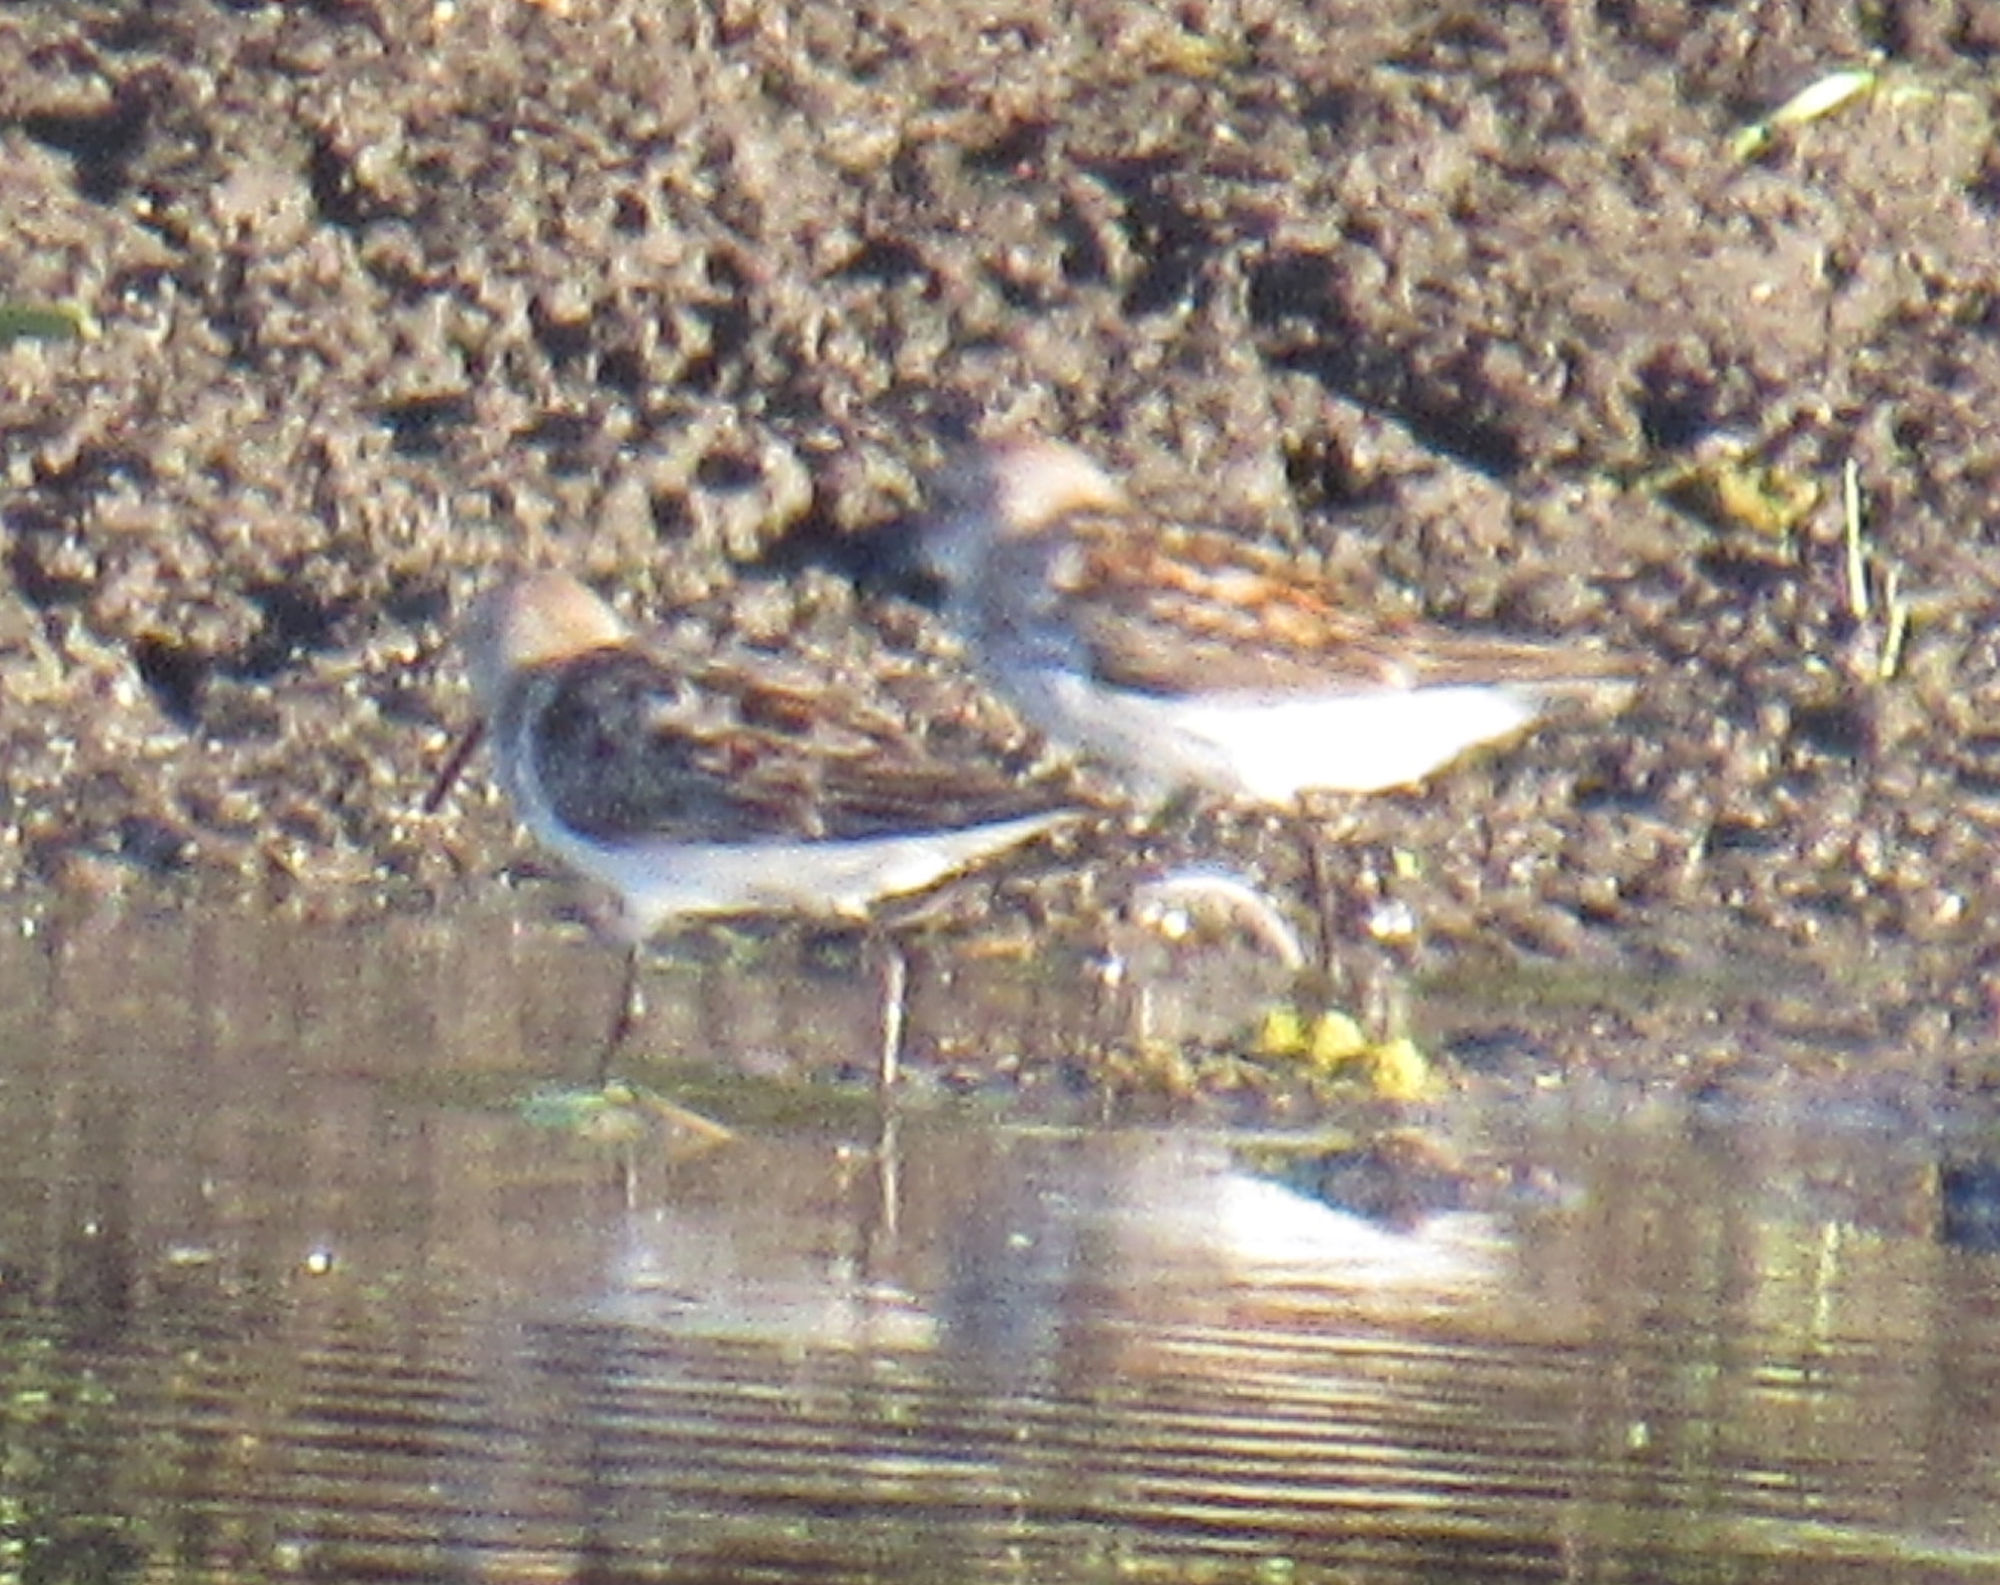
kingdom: Animalia
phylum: Chordata
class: Aves
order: Charadriiformes
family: Scolopacidae
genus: Calidris
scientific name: Calidris mauri
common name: Western sandpiper
